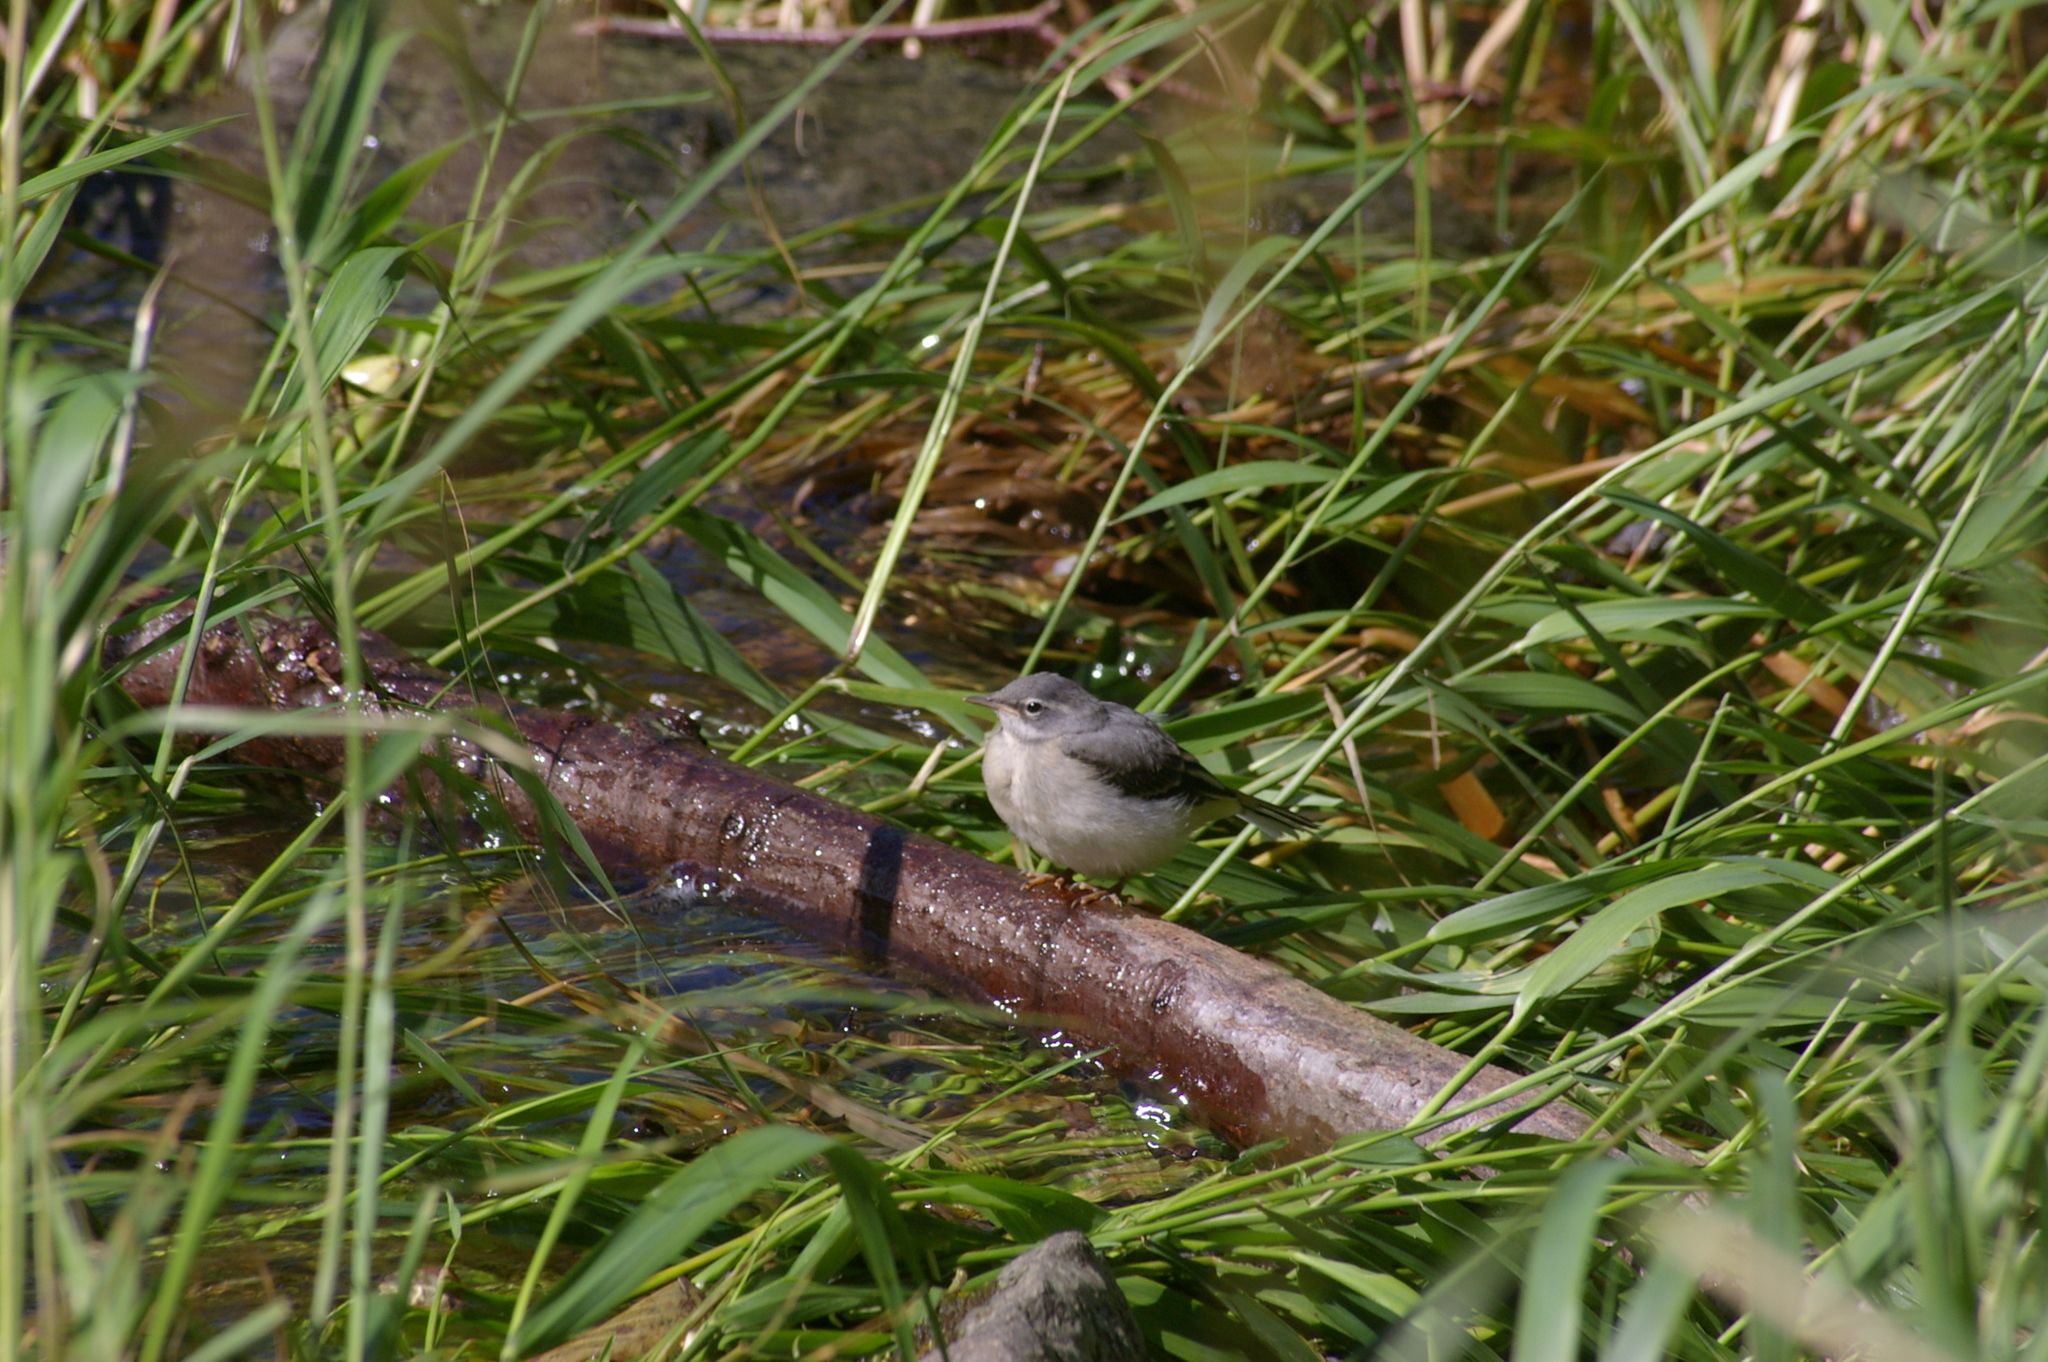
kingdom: Animalia
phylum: Chordata
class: Aves
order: Passeriformes
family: Motacillidae
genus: Motacilla
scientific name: Motacilla cinerea
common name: Grey wagtail
